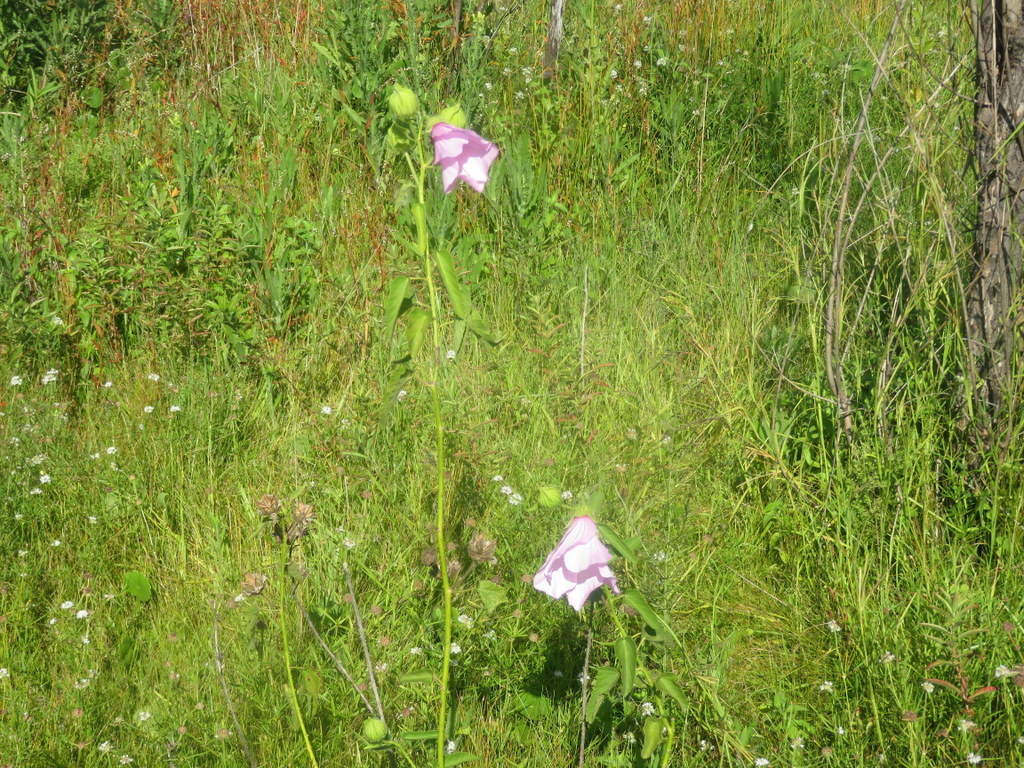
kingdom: Plantae
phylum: Tracheophyta
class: Magnoliopsida
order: Malvales
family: Malvaceae
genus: Hibiscus
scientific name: Hibiscus striatus
